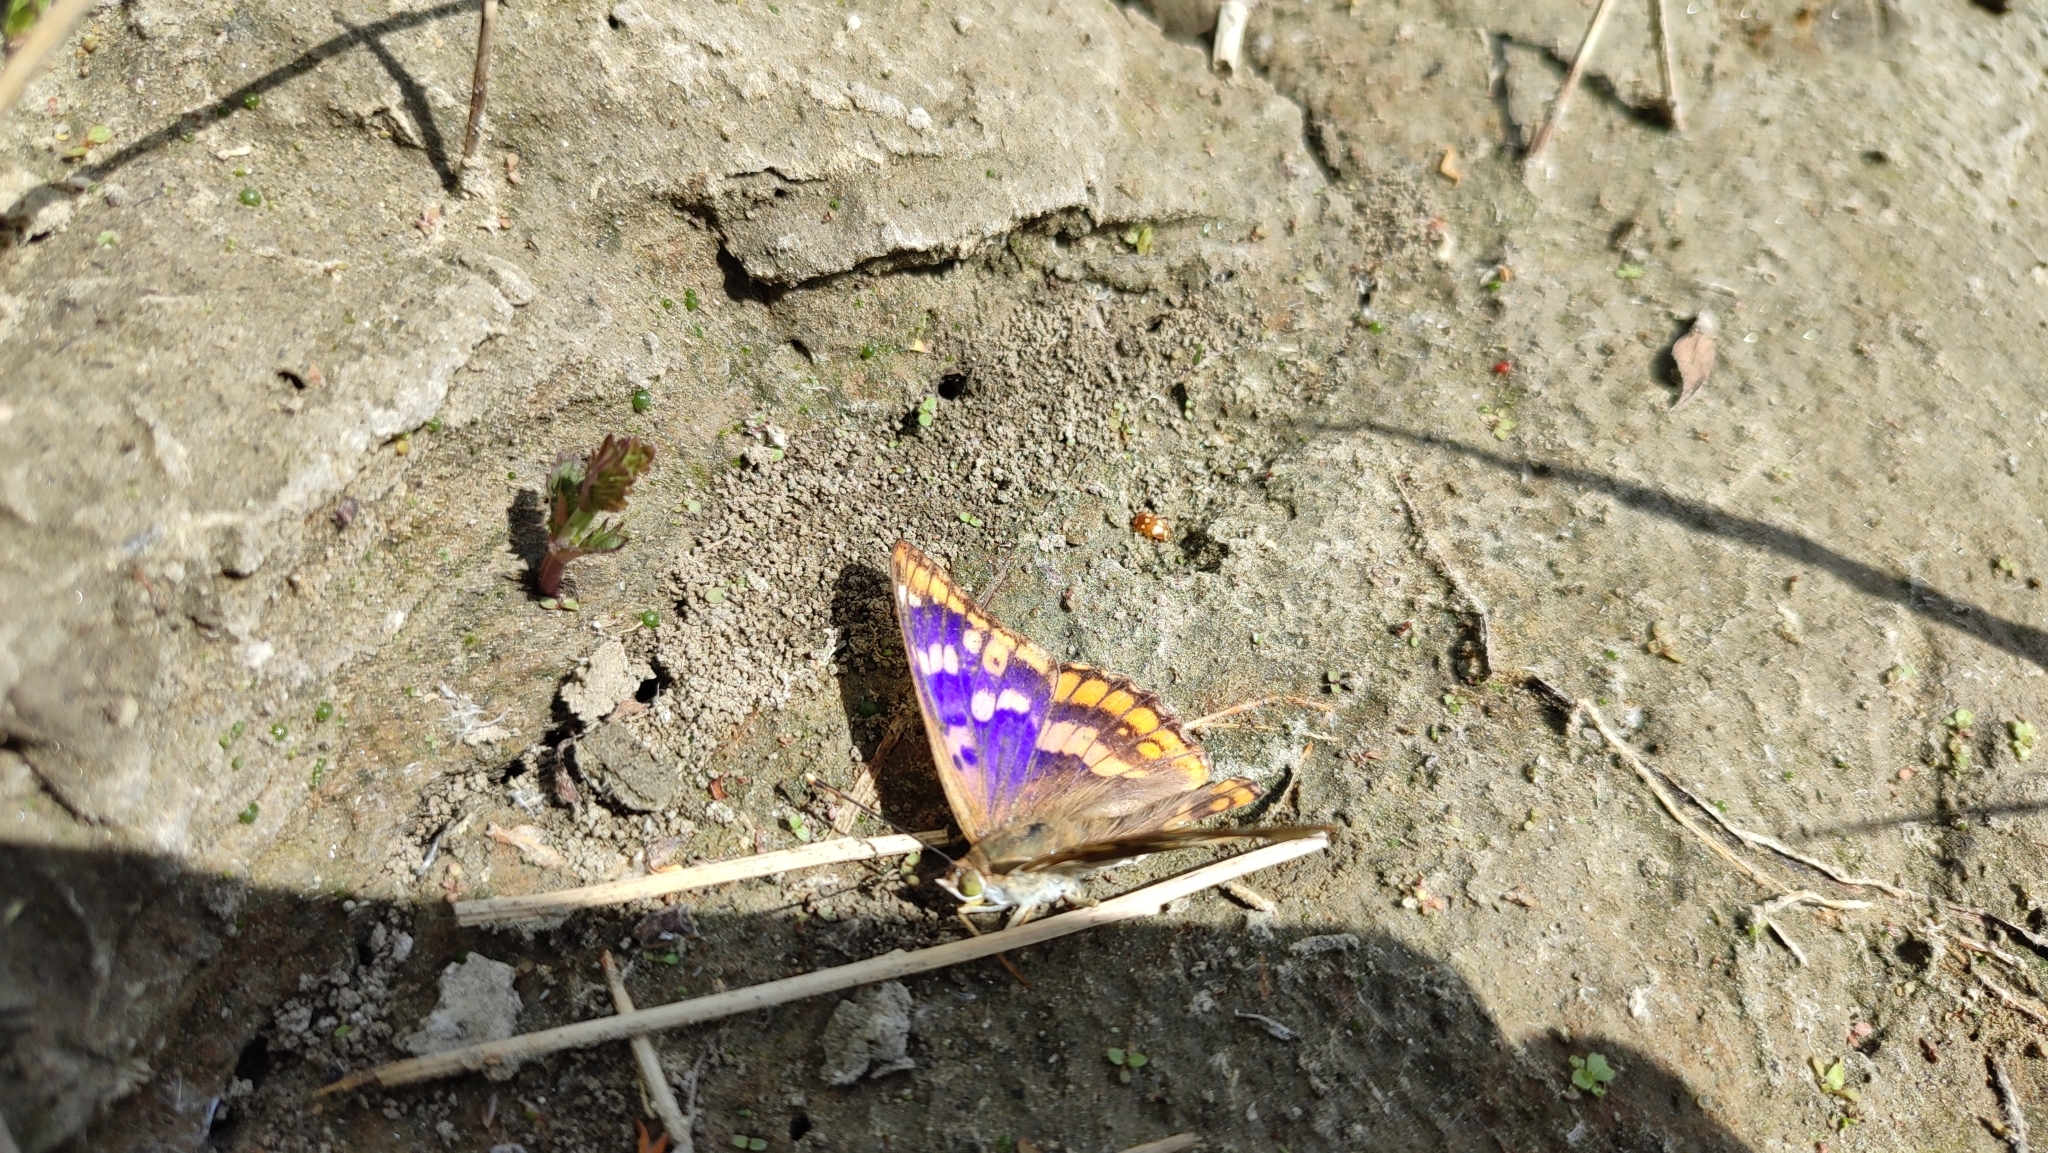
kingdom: Animalia
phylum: Arthropoda
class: Insecta
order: Lepidoptera
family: Nymphalidae
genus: Apatura
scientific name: Apatura ilia
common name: Lesser purple emperor
